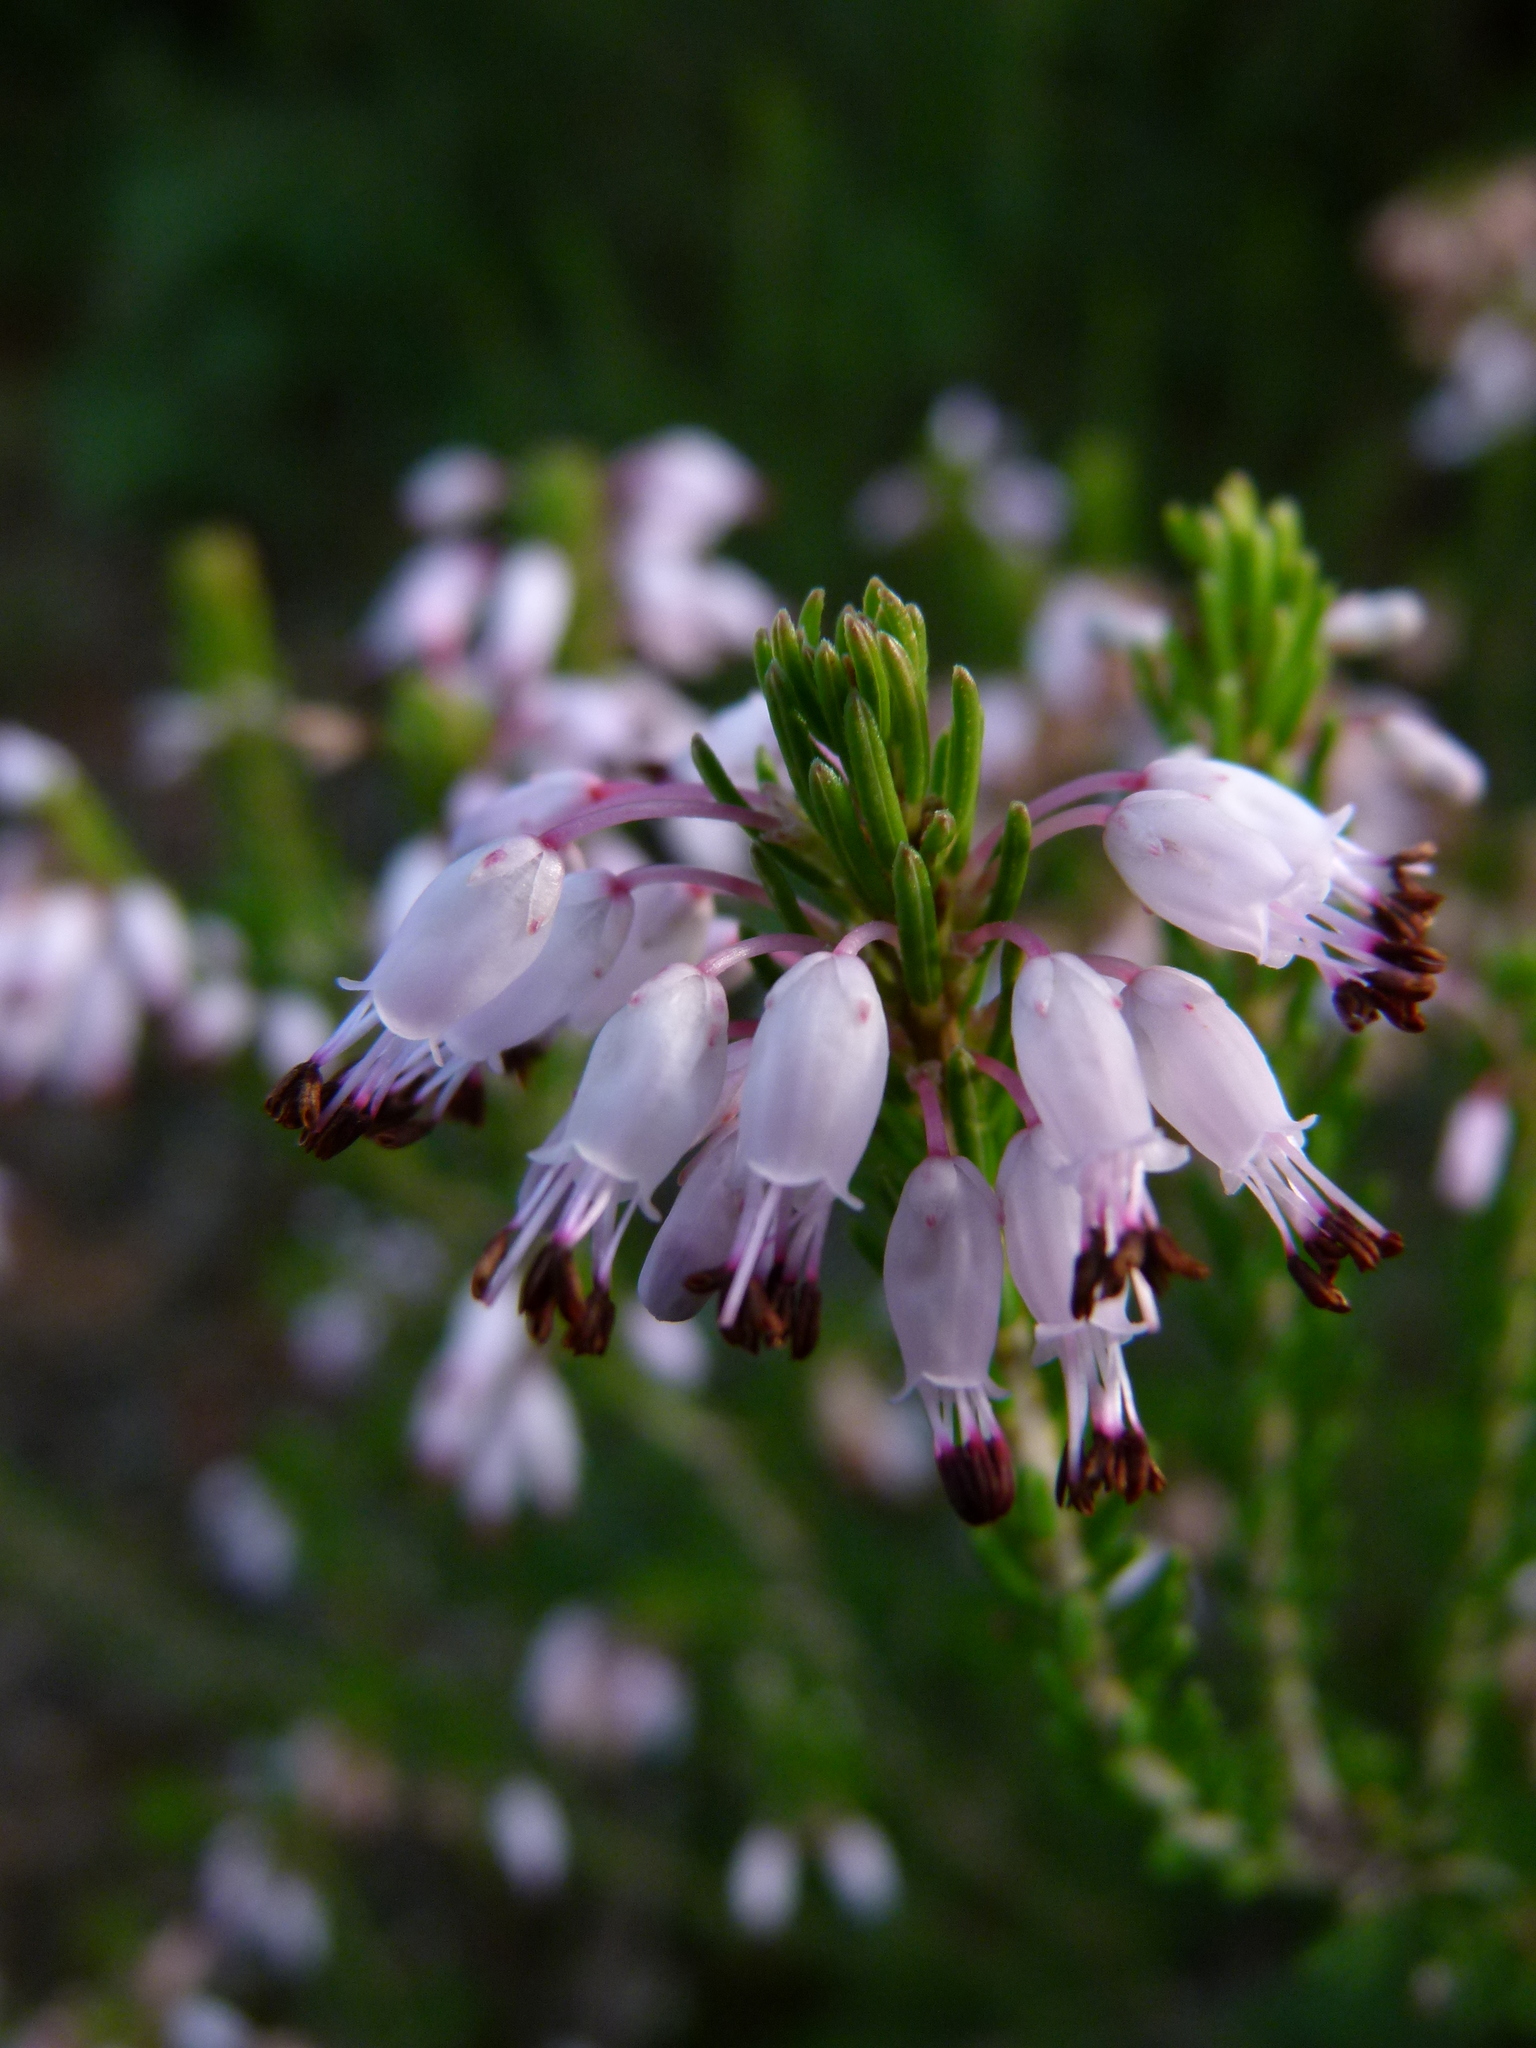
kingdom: Plantae
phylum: Tracheophyta
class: Magnoliopsida
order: Ericales
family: Ericaceae
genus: Erica
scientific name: Erica multiflora
